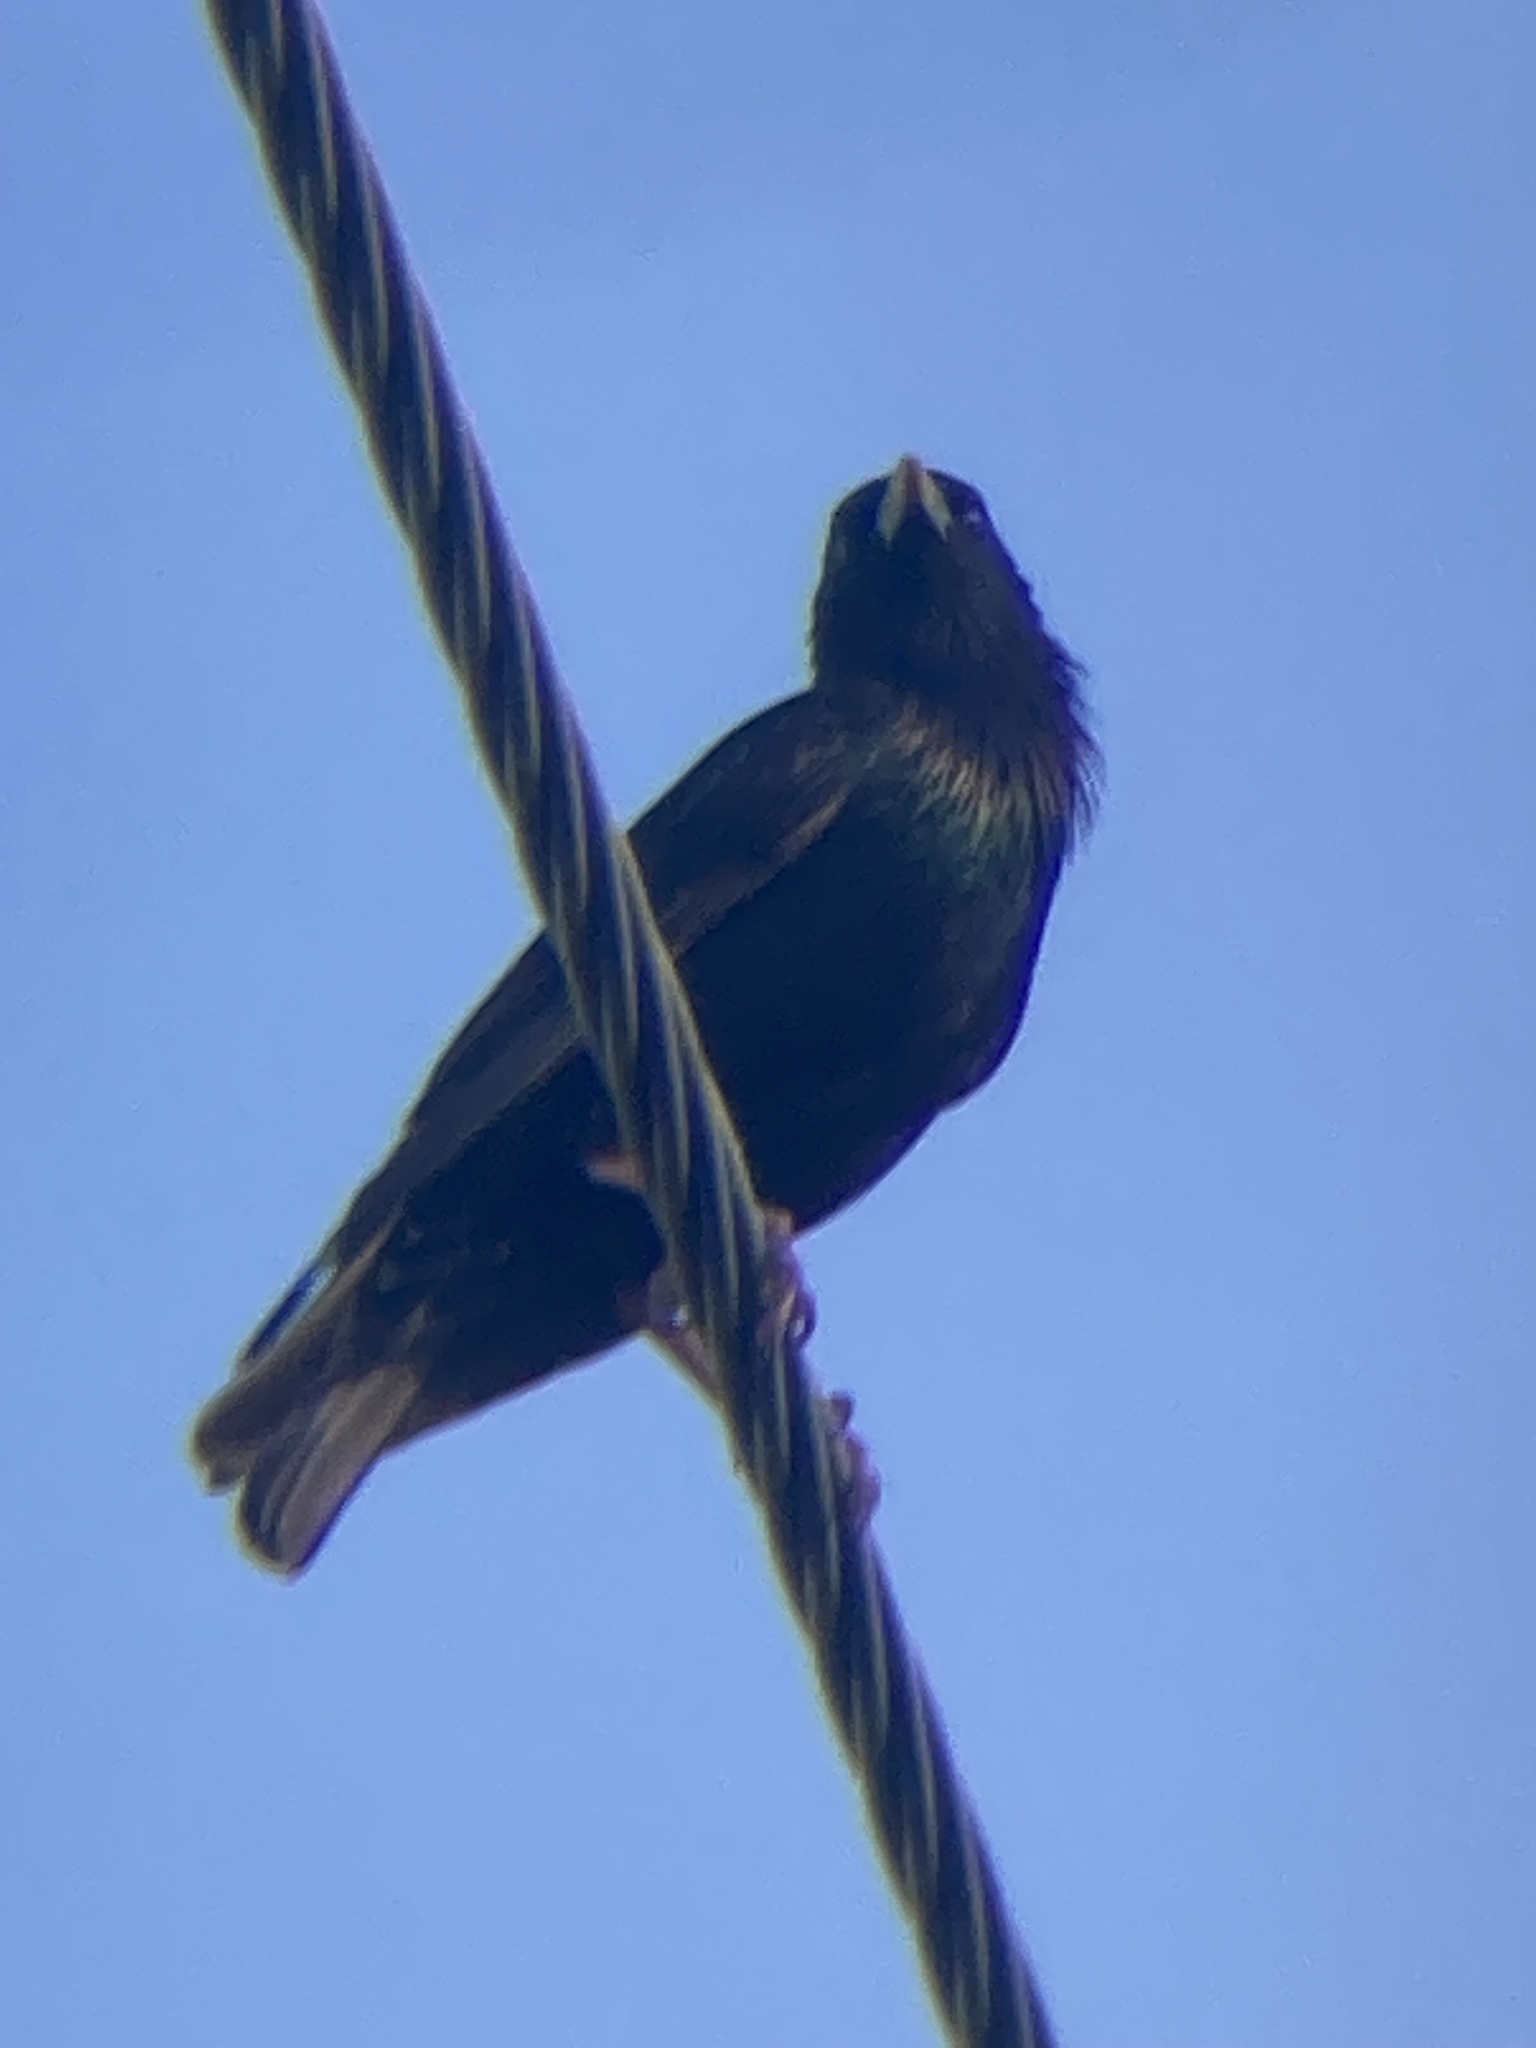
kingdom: Animalia
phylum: Chordata
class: Aves
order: Passeriformes
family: Sturnidae
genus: Sturnus
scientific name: Sturnus vulgaris
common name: Common starling
